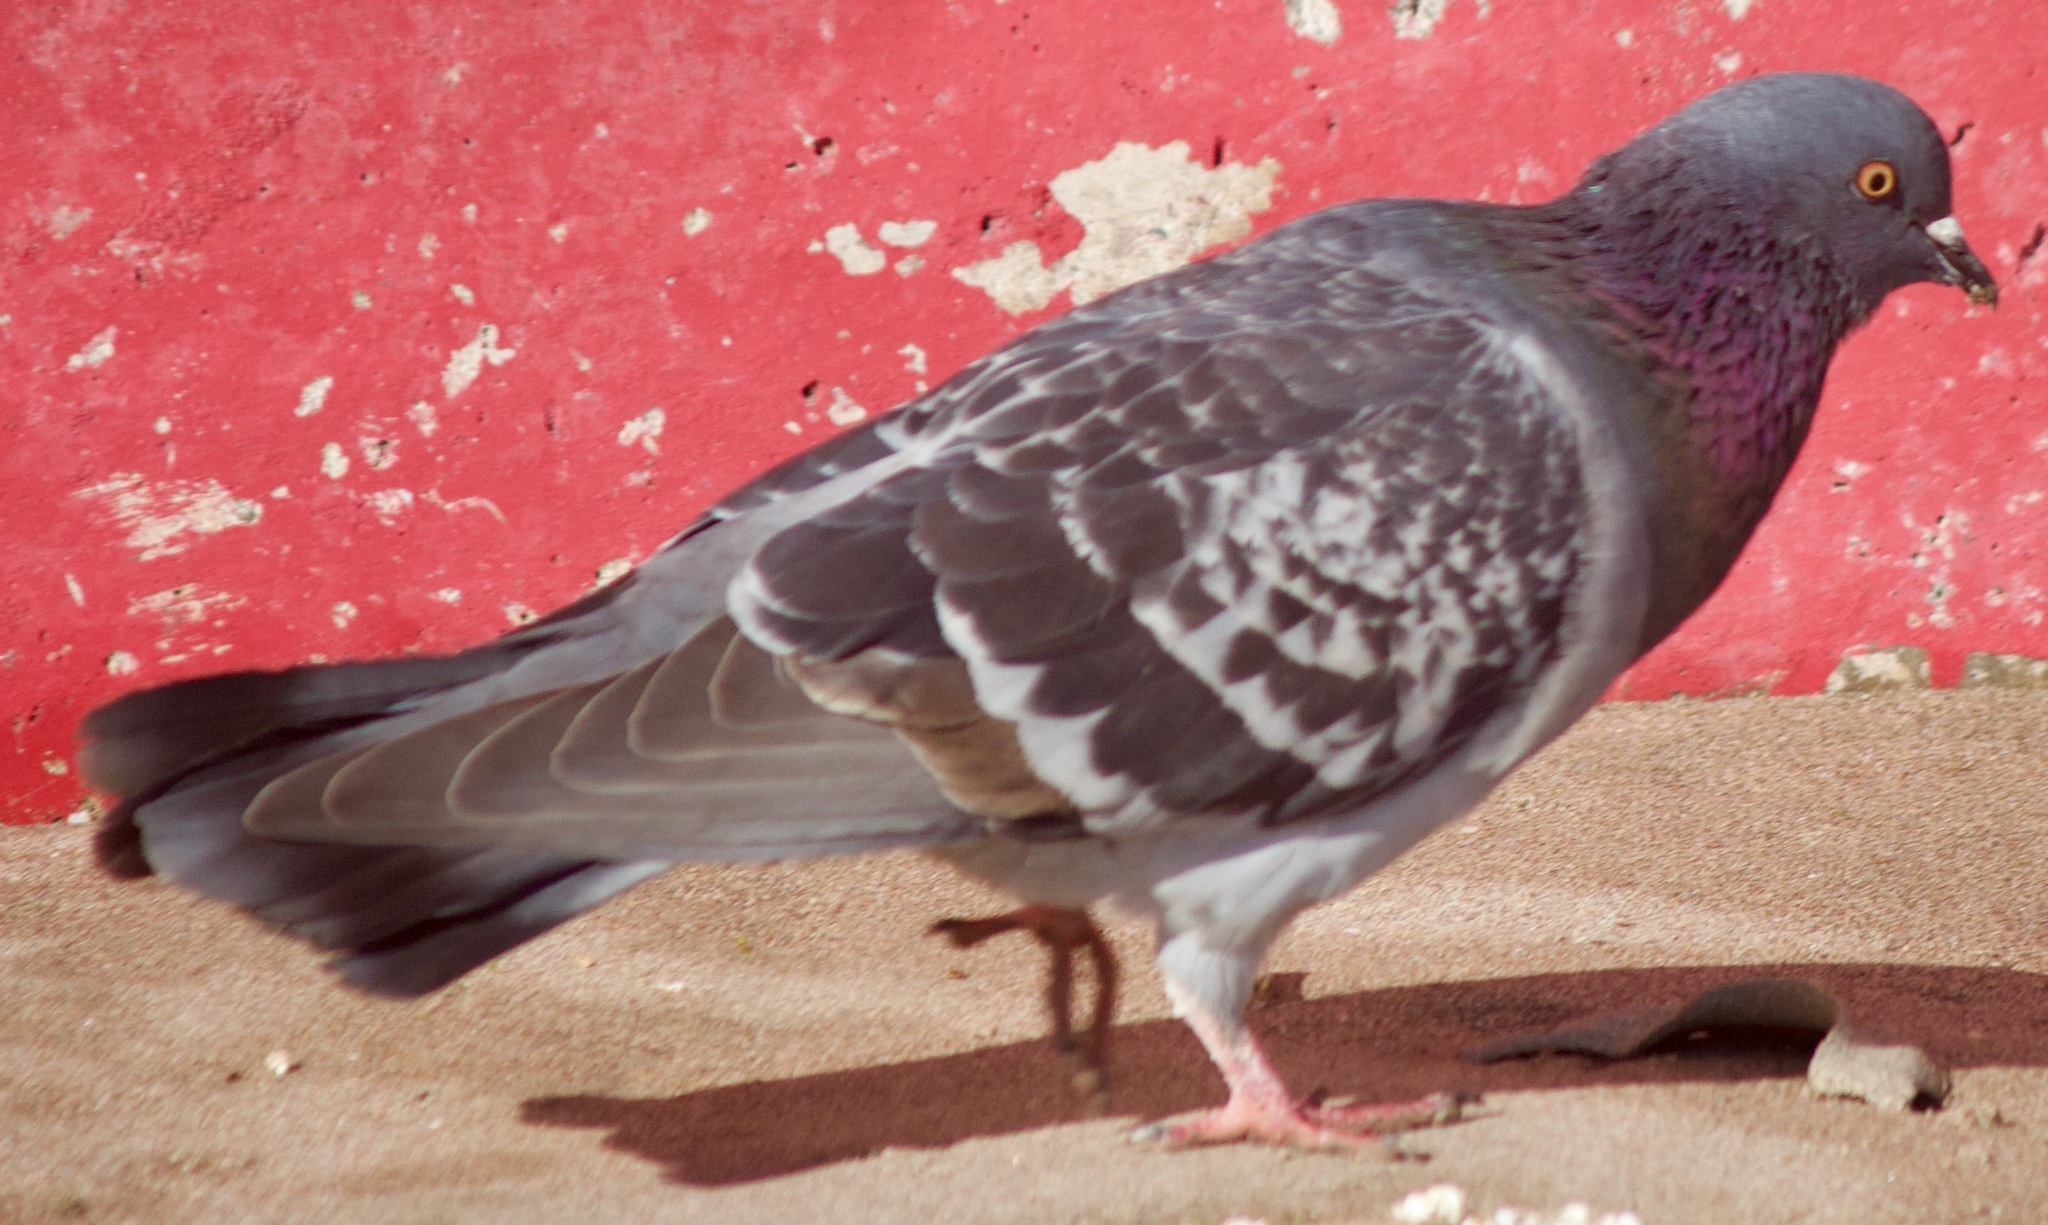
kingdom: Animalia
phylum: Chordata
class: Aves
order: Columbiformes
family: Columbidae
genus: Columba
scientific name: Columba livia
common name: Rock pigeon
